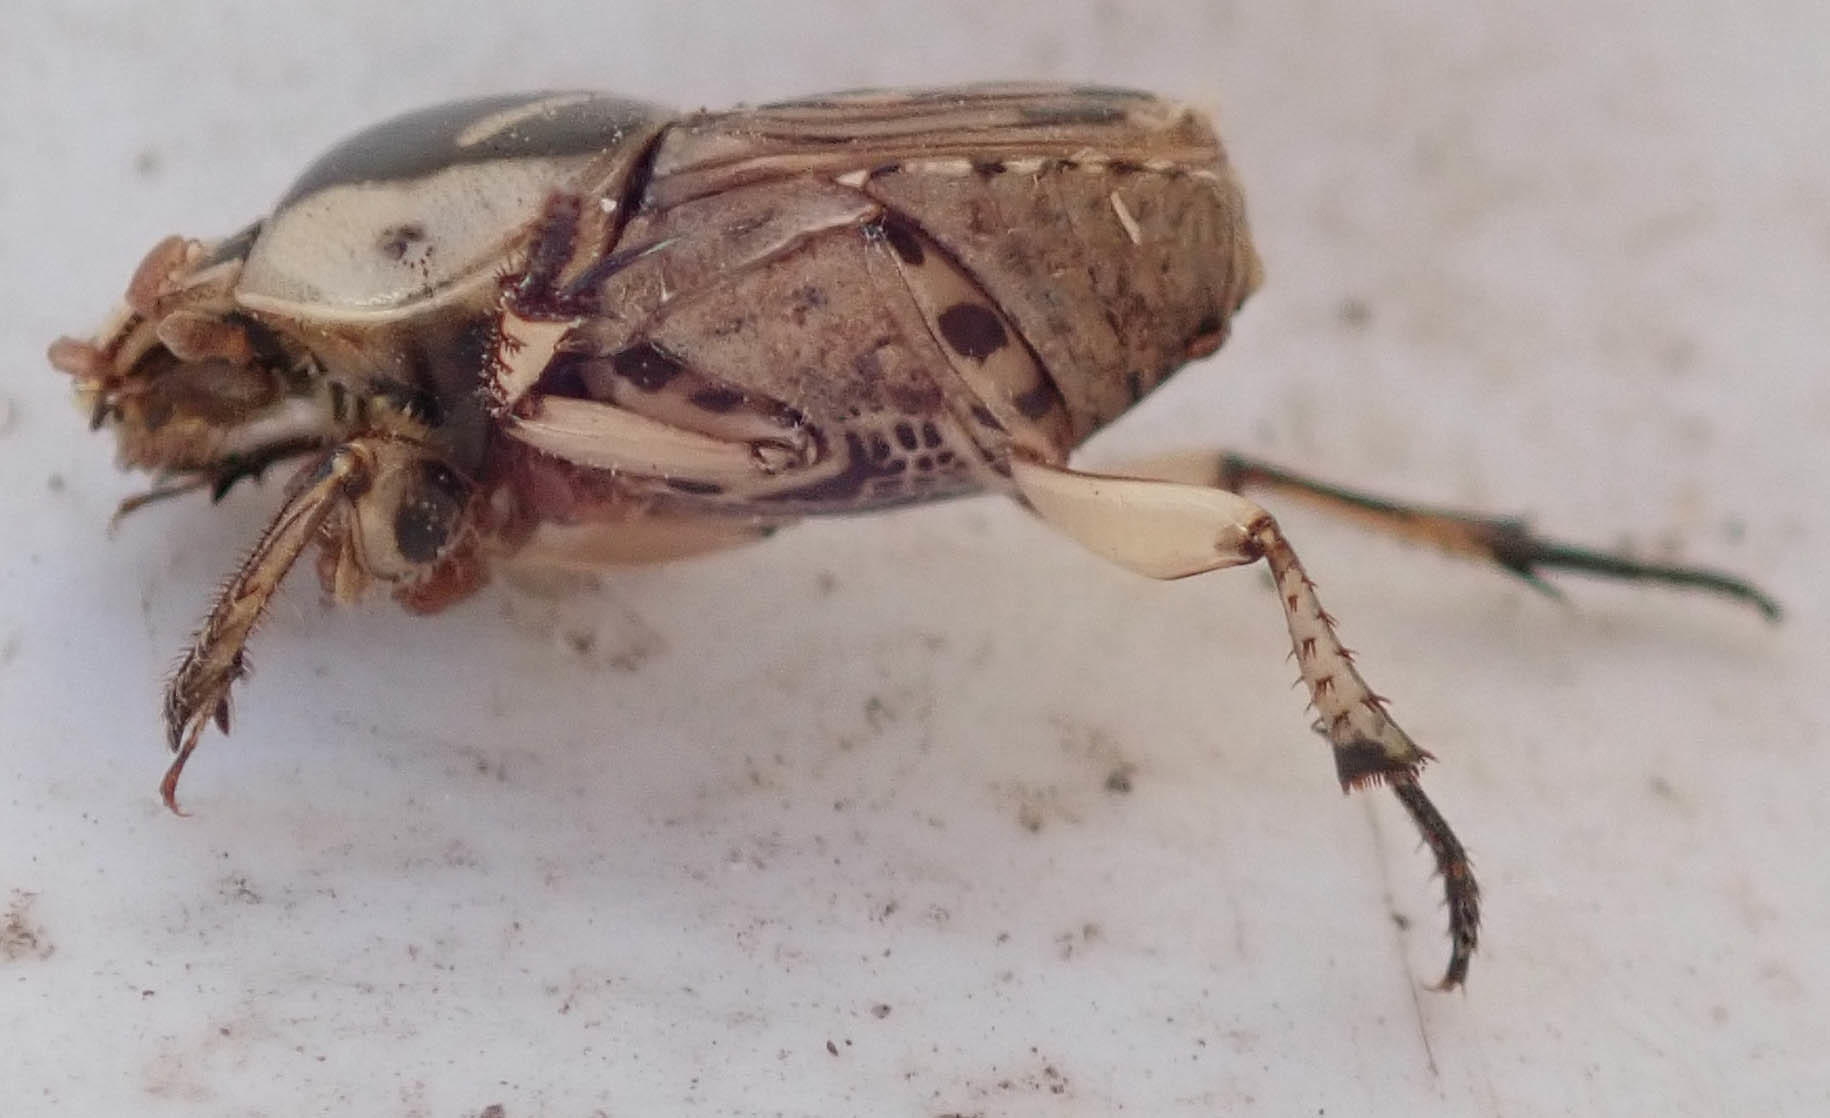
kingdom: Animalia
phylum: Arthropoda
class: Insecta
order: Coleoptera
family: Scarabaeidae
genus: Oniticellus
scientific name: Oniticellus pictus
